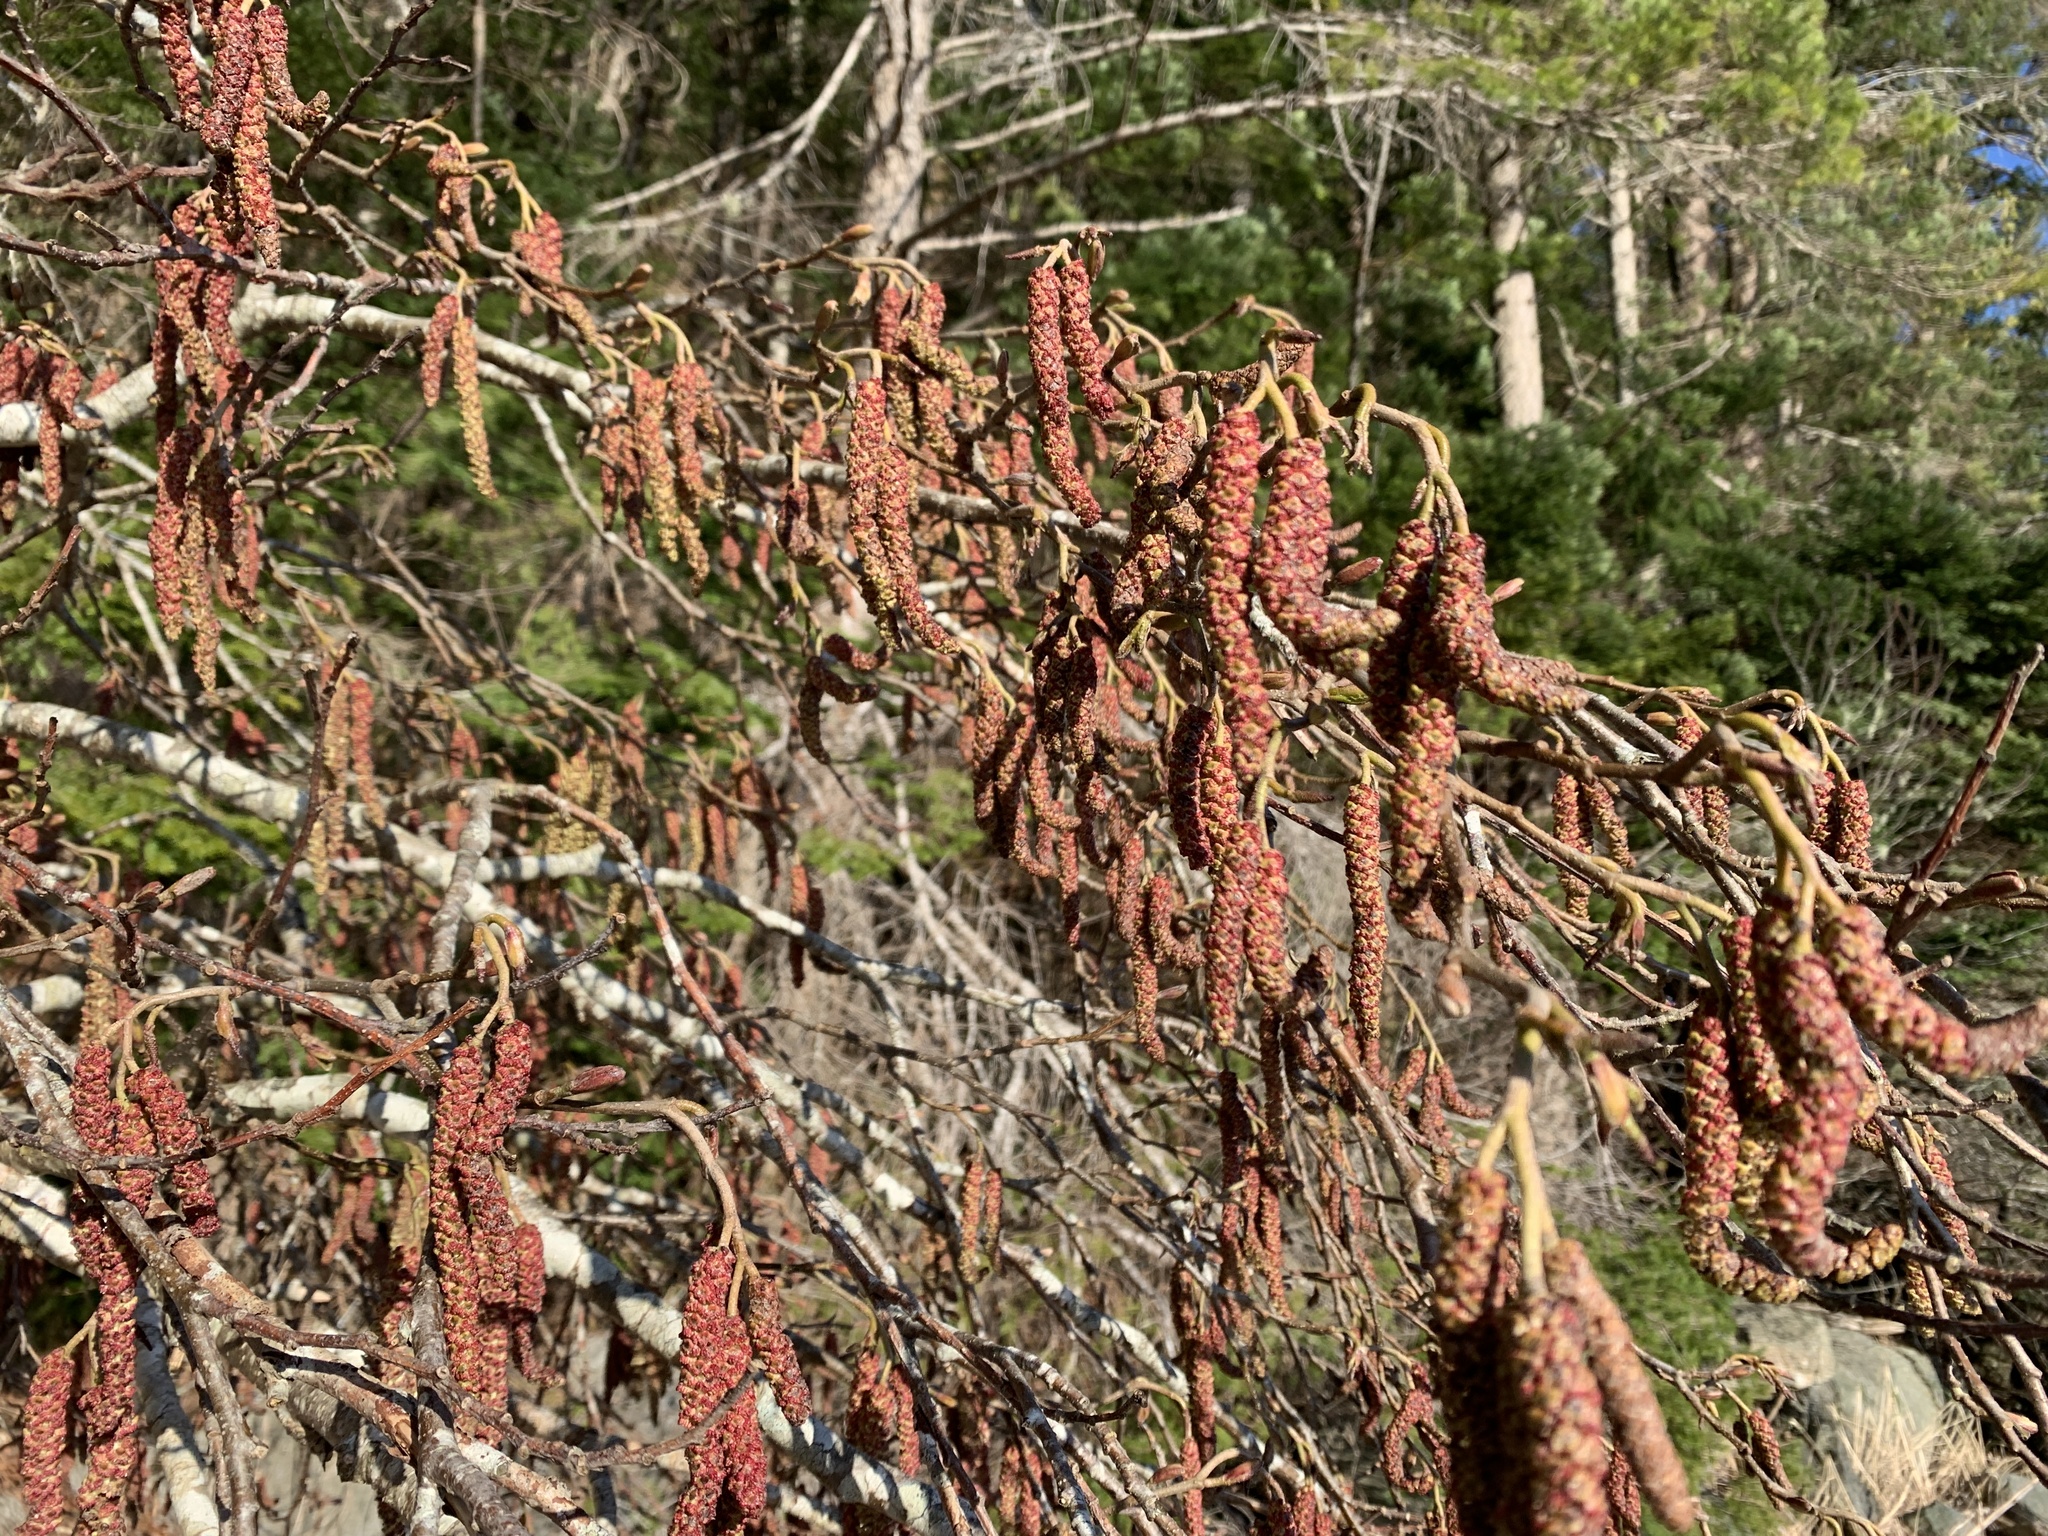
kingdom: Plantae
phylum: Tracheophyta
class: Magnoliopsida
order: Fagales
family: Betulaceae
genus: Alnus
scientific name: Alnus rubra
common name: Red alder
